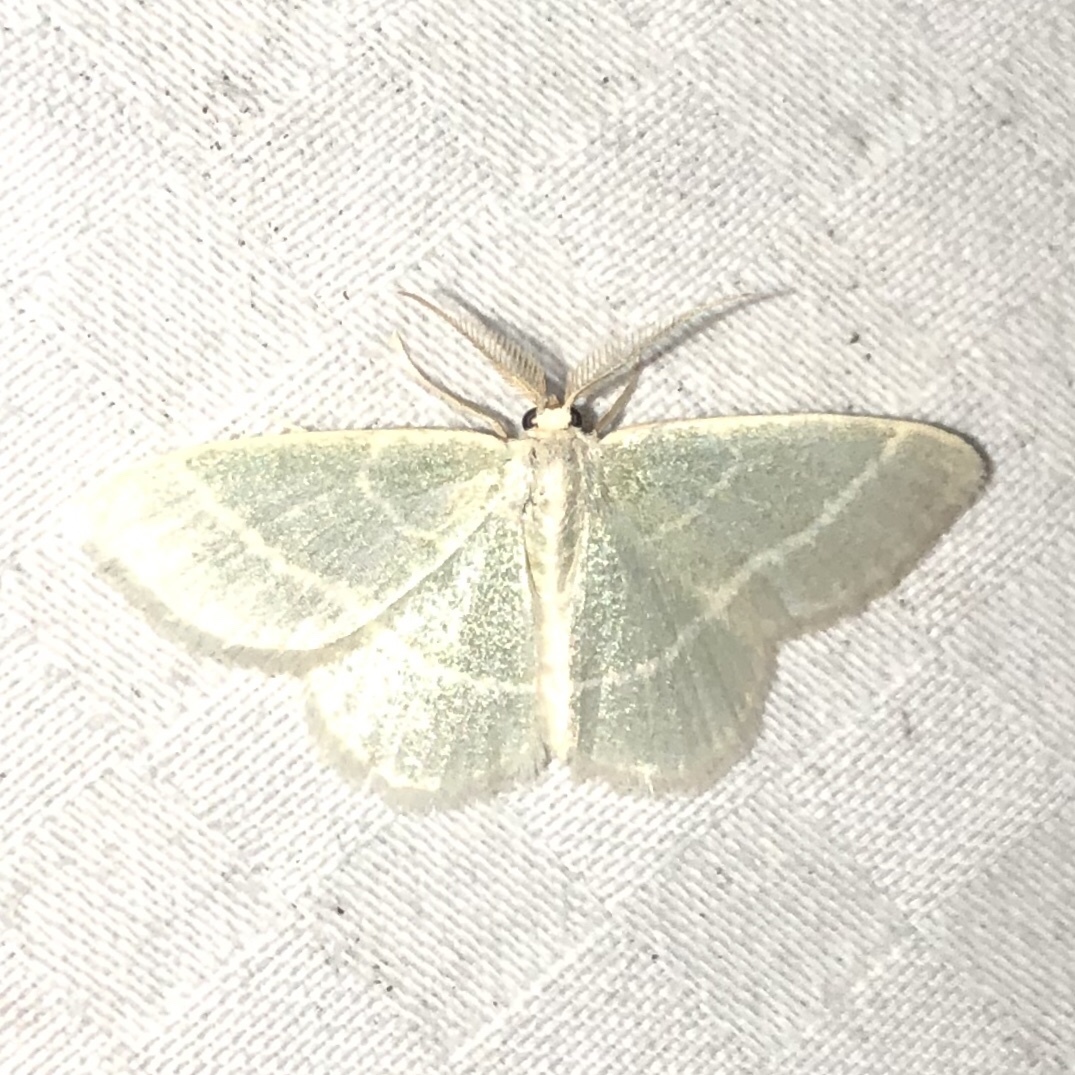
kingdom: Animalia
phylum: Arthropoda
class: Insecta
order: Lepidoptera
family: Geometridae
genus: Chlorochlamys
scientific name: Chlorochlamys chloroleucaria
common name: Blackberry looper
